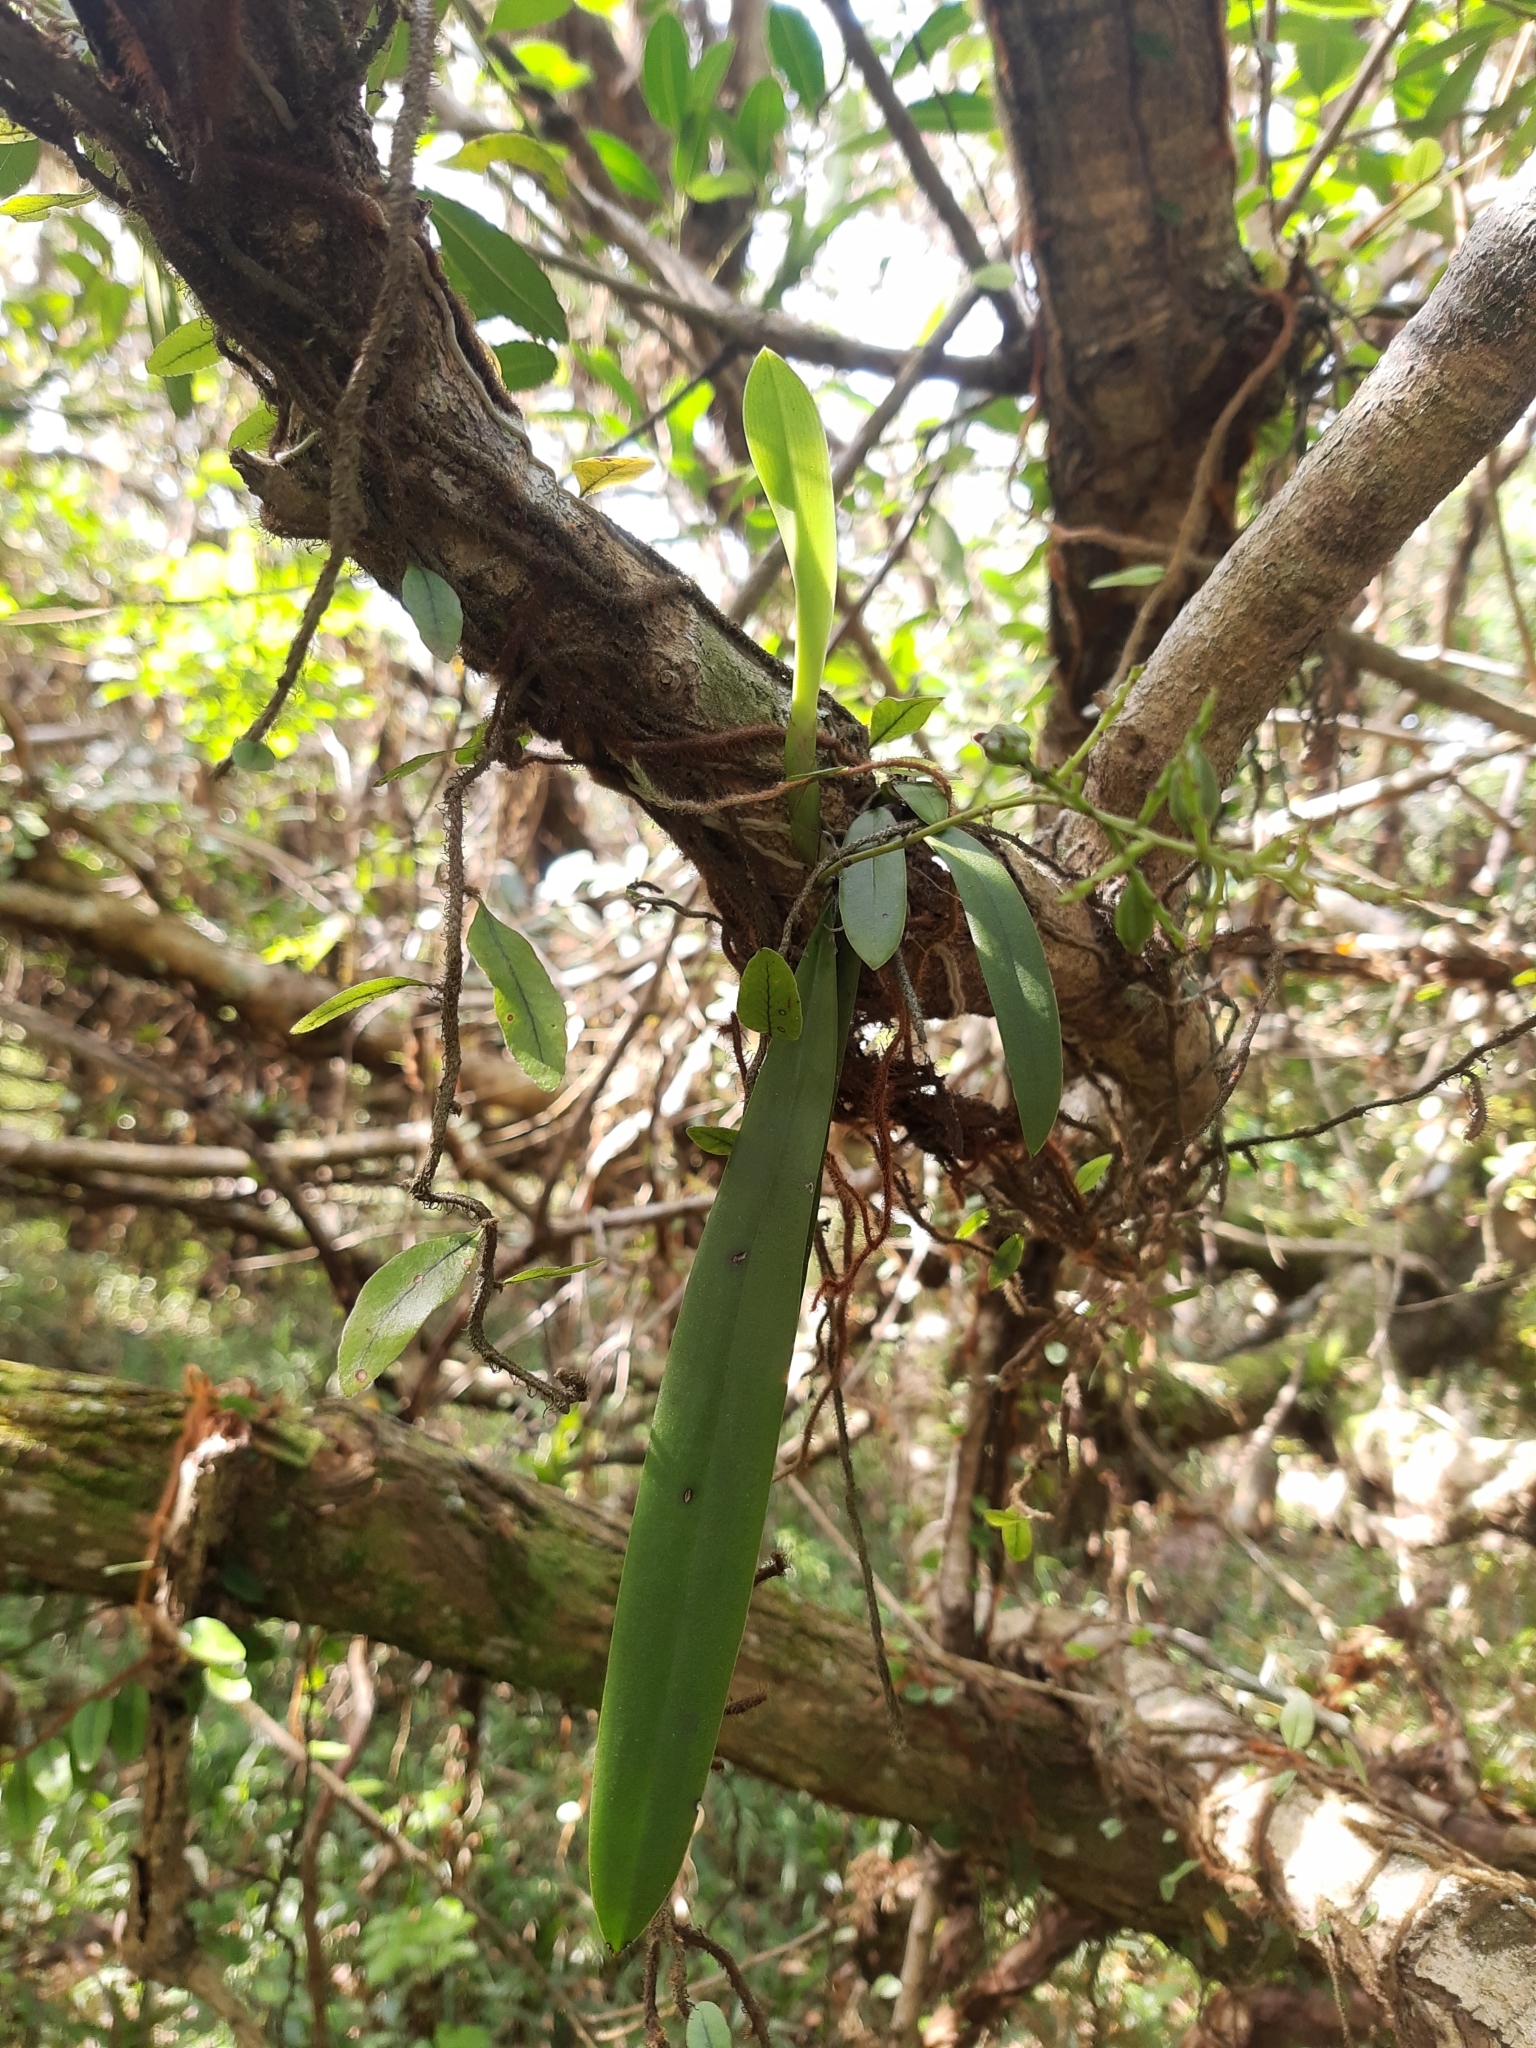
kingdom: Plantae
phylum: Tracheophyta
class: Liliopsida
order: Asparagales
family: Orchidaceae
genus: Trichocentrum
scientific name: Trichocentrum pumilum
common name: Mule-ear orchid
